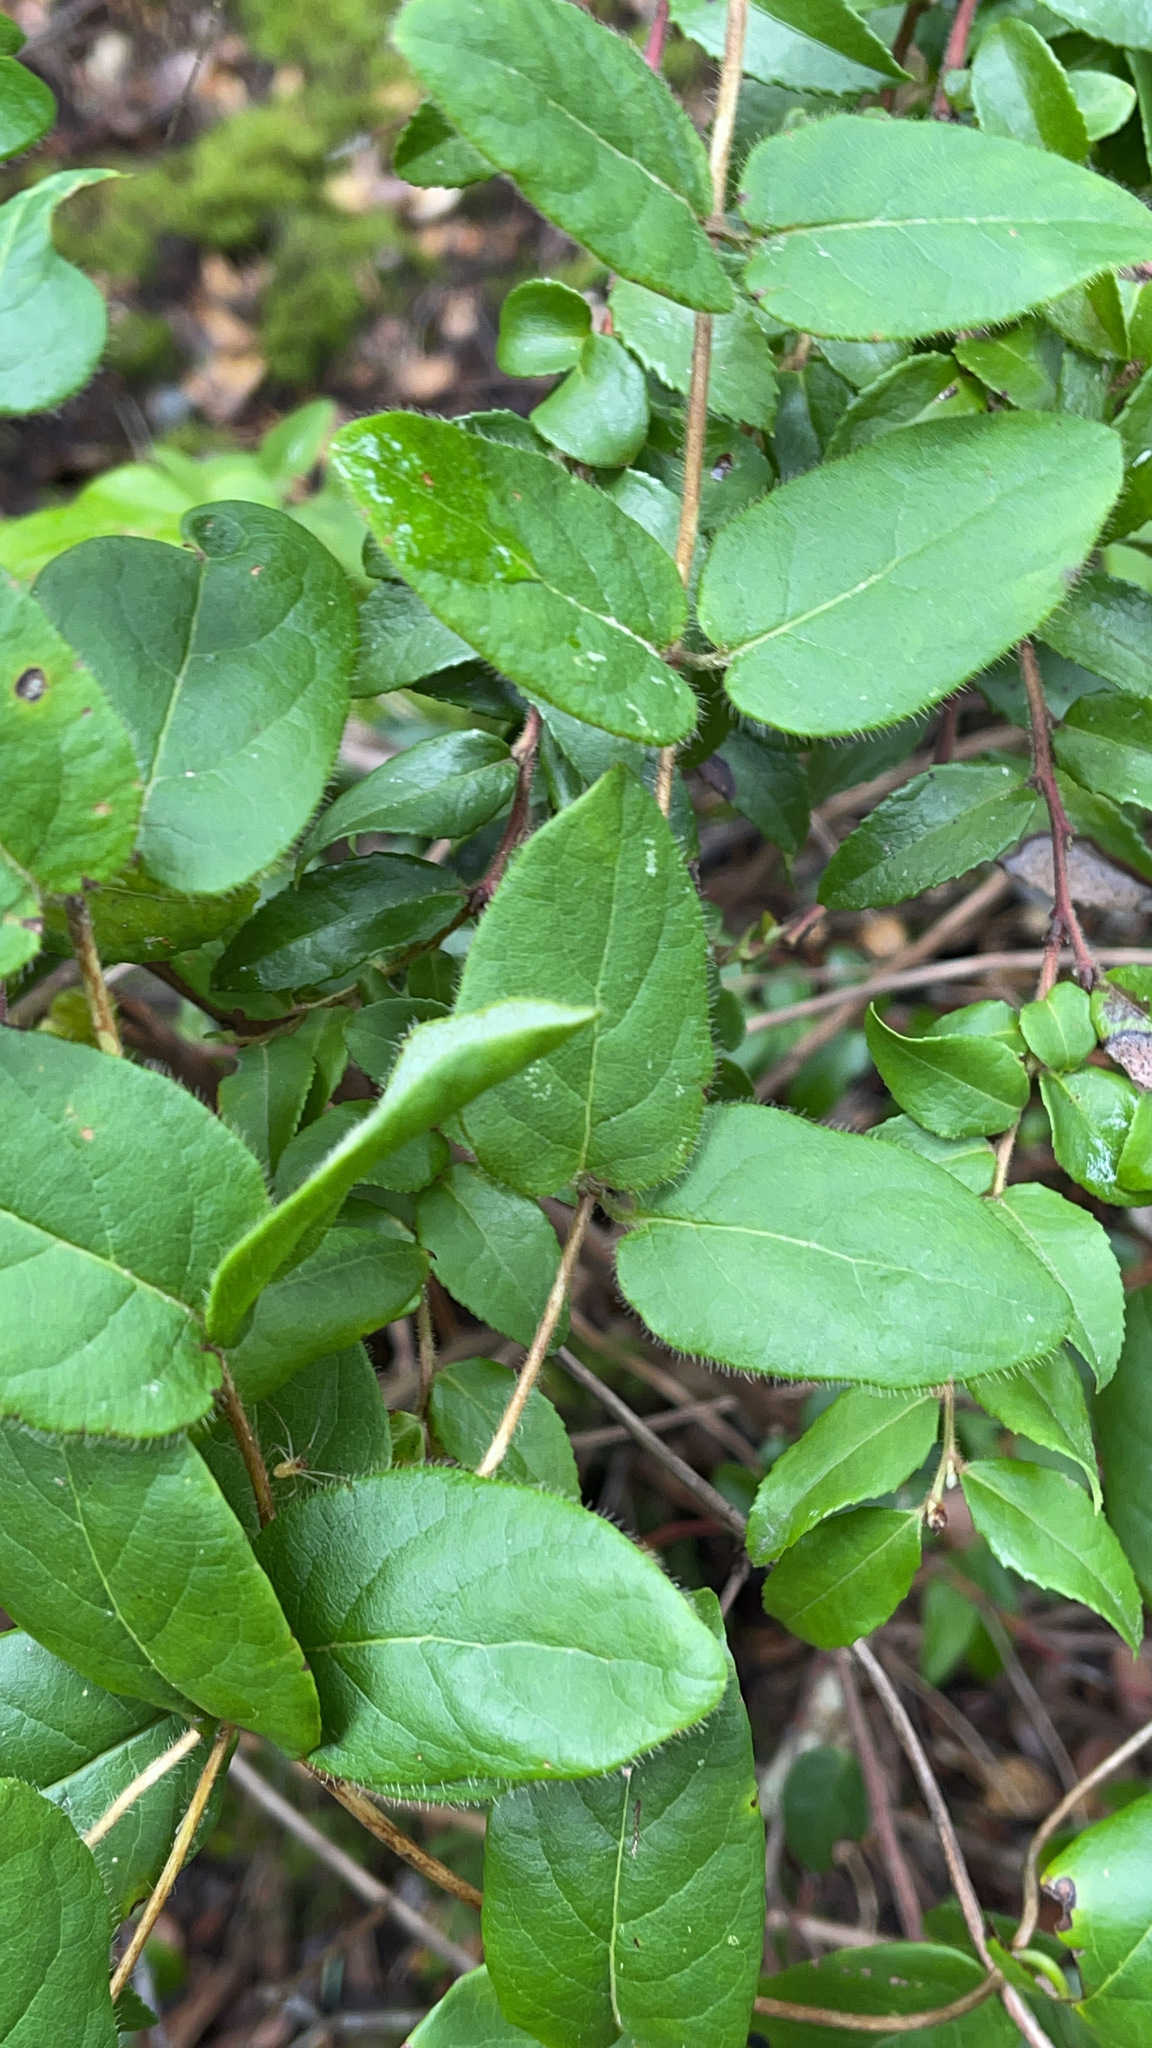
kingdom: Plantae
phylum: Tracheophyta
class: Magnoliopsida
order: Dipsacales
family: Caprifoliaceae
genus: Lonicera
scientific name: Lonicera hispidula
